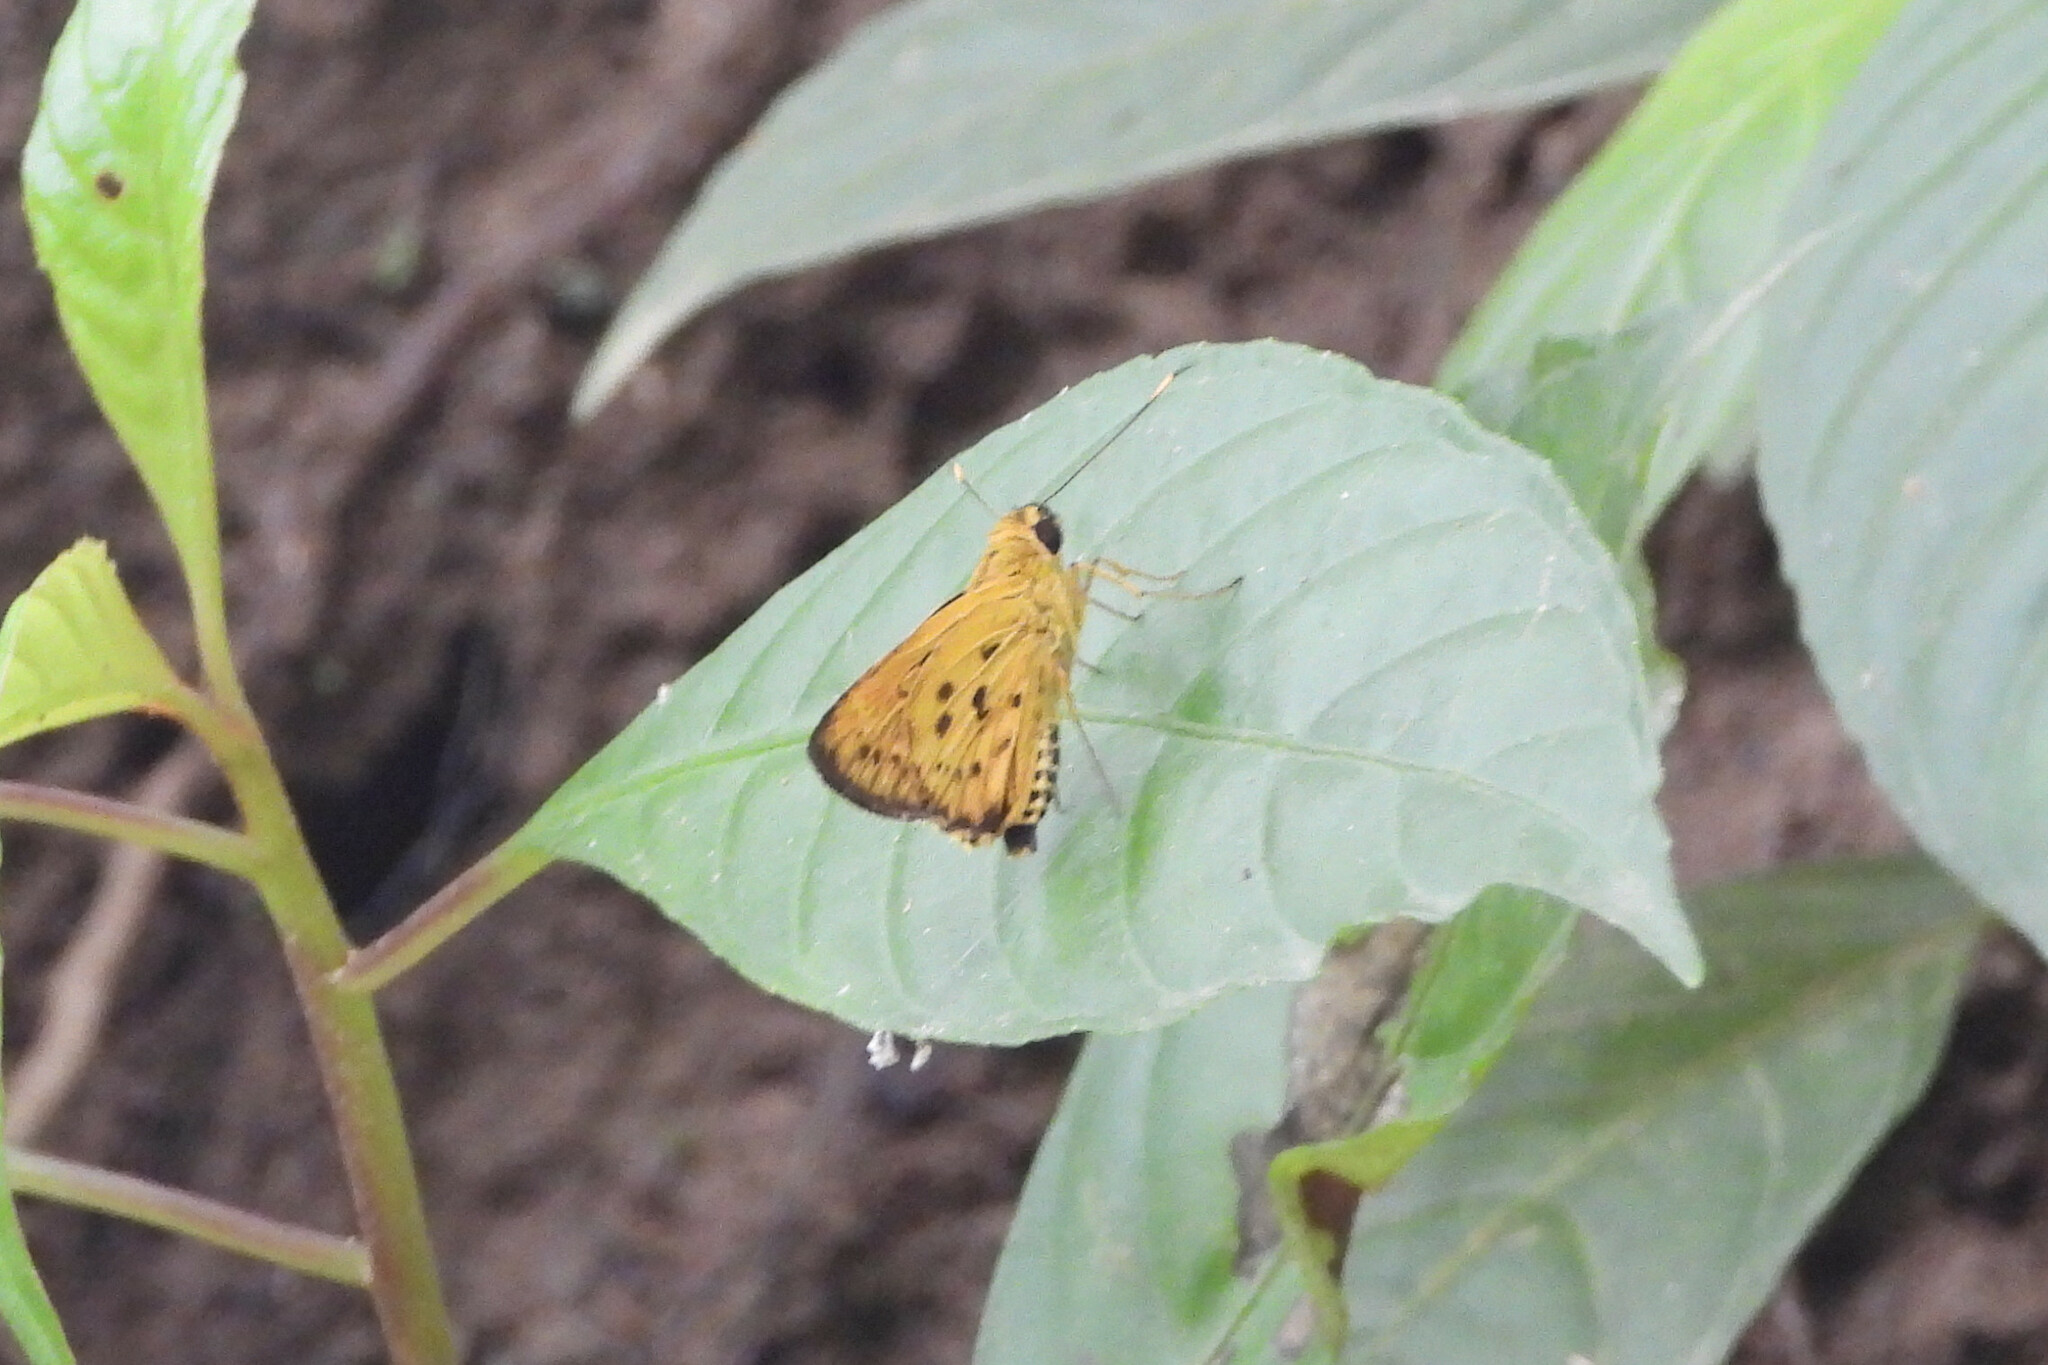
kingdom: Animalia
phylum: Arthropoda
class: Insecta
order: Lepidoptera
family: Hesperiidae
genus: Salanoemia
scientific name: Salanoemia noemi
